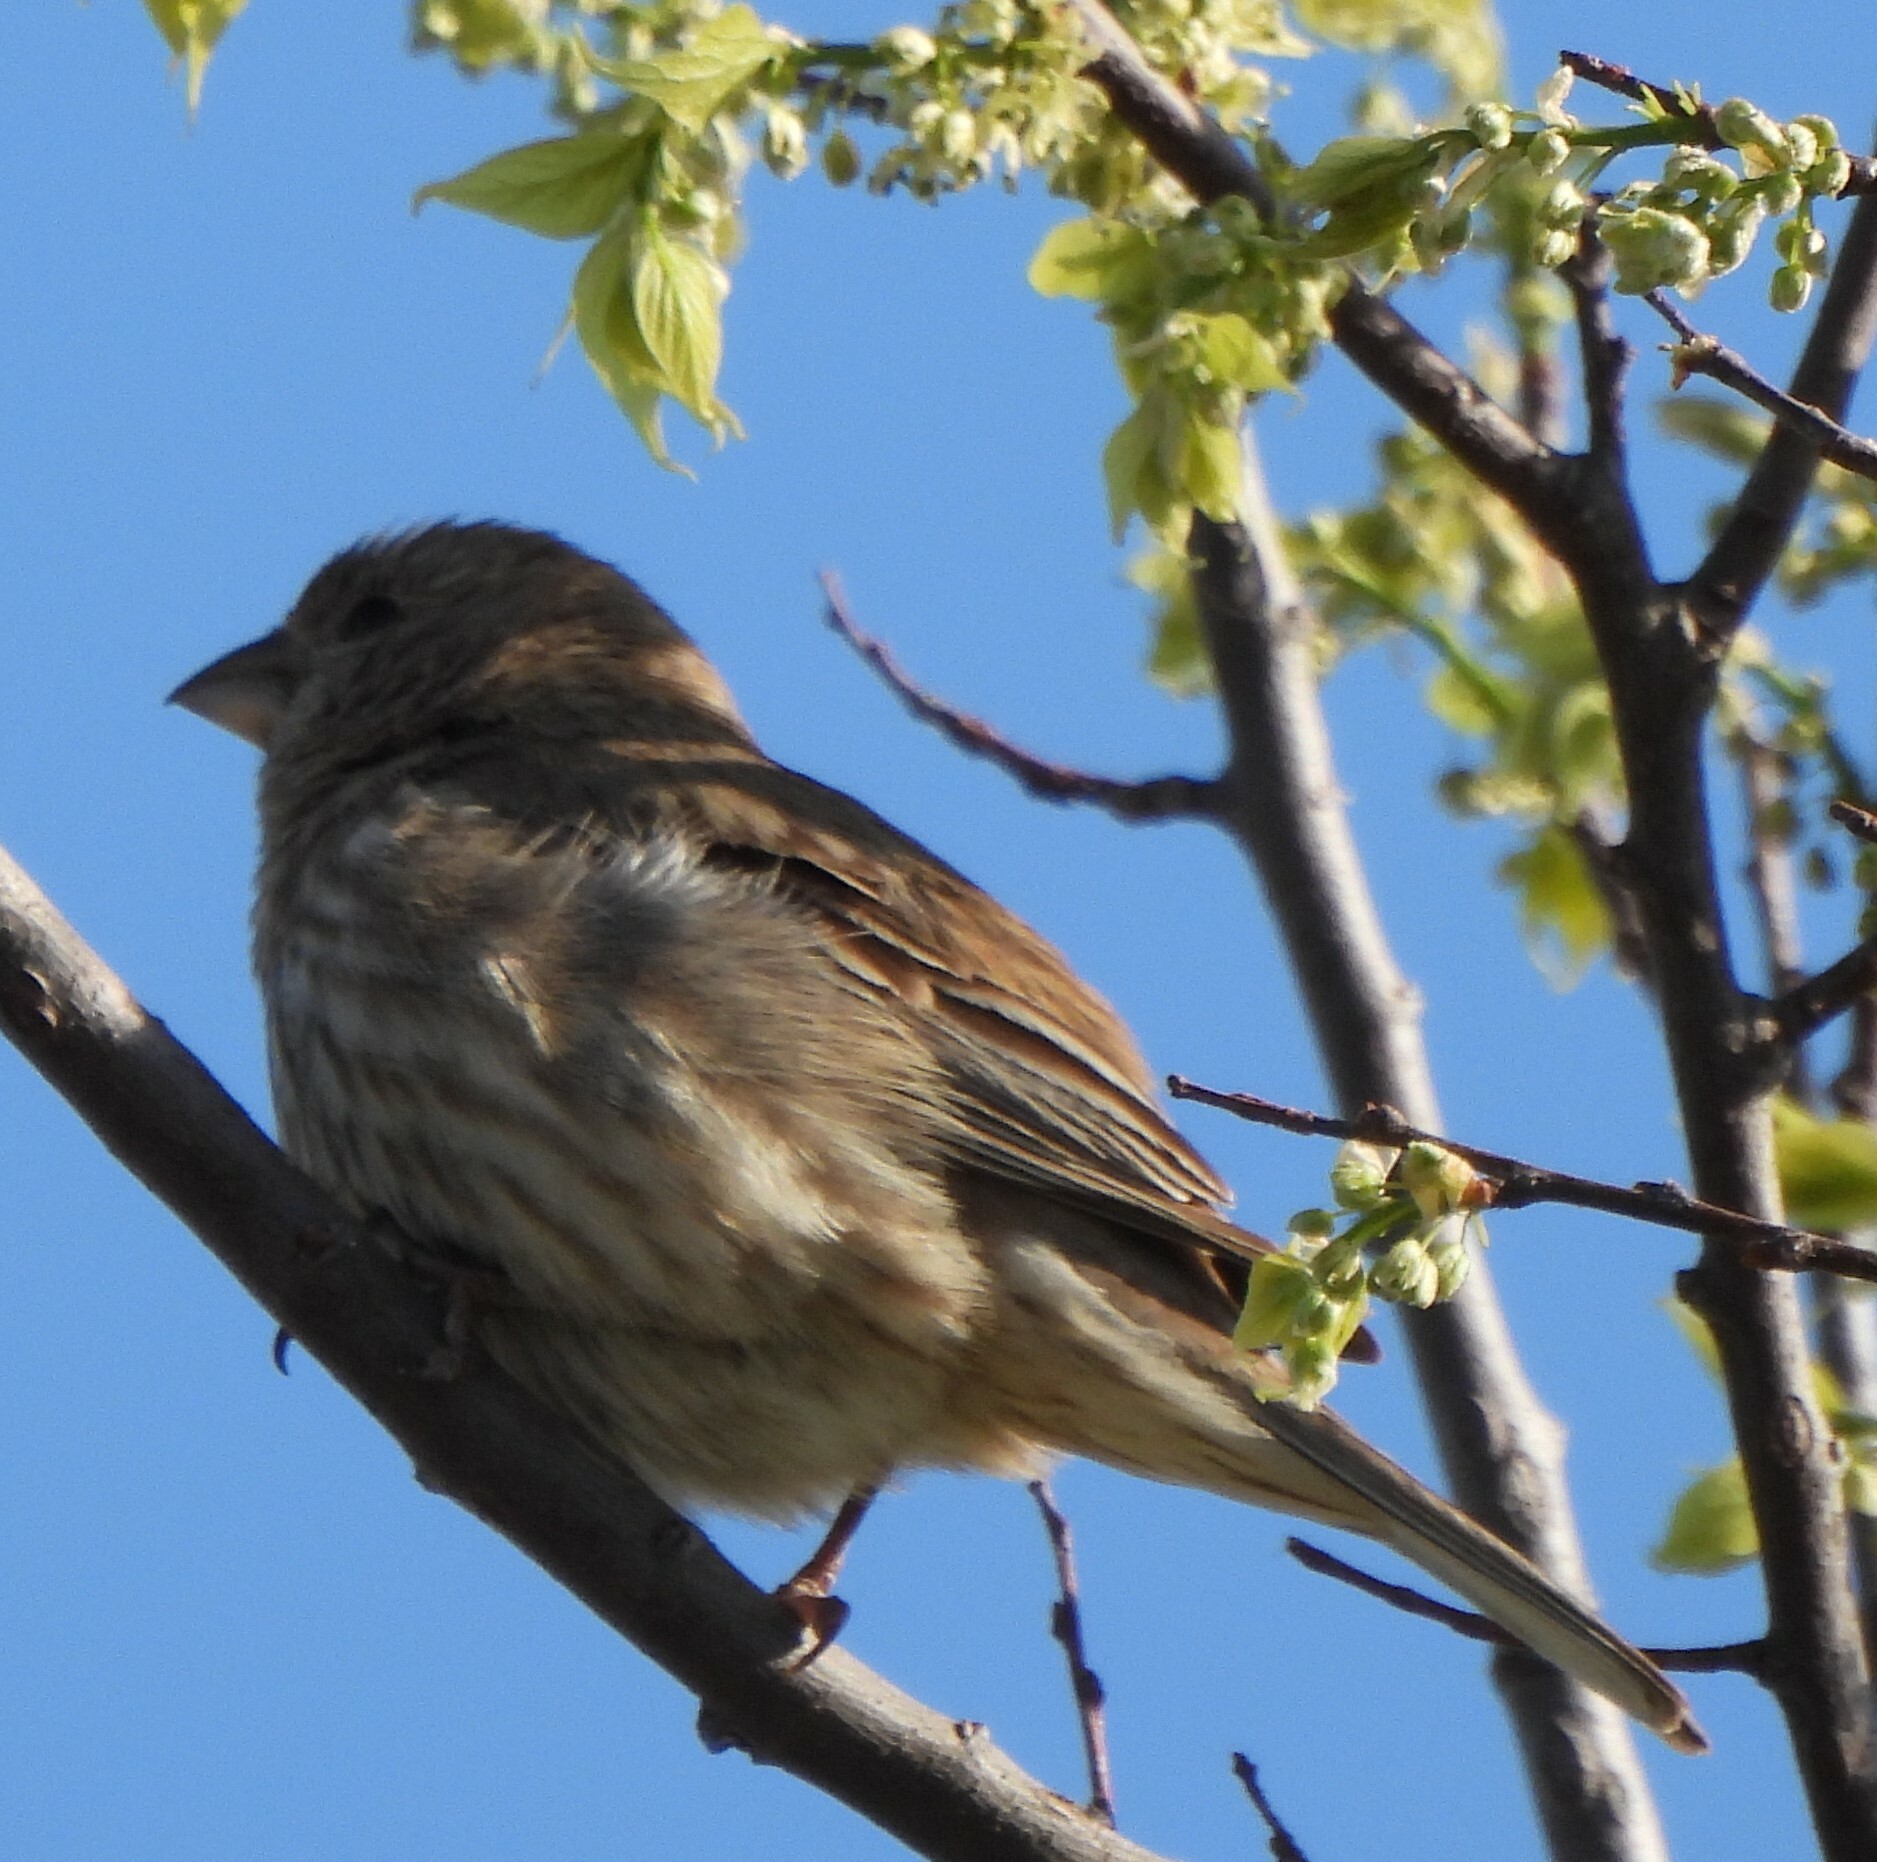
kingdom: Animalia
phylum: Chordata
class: Aves
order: Passeriformes
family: Fringillidae
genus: Haemorhous
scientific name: Haemorhous mexicanus
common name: House finch
